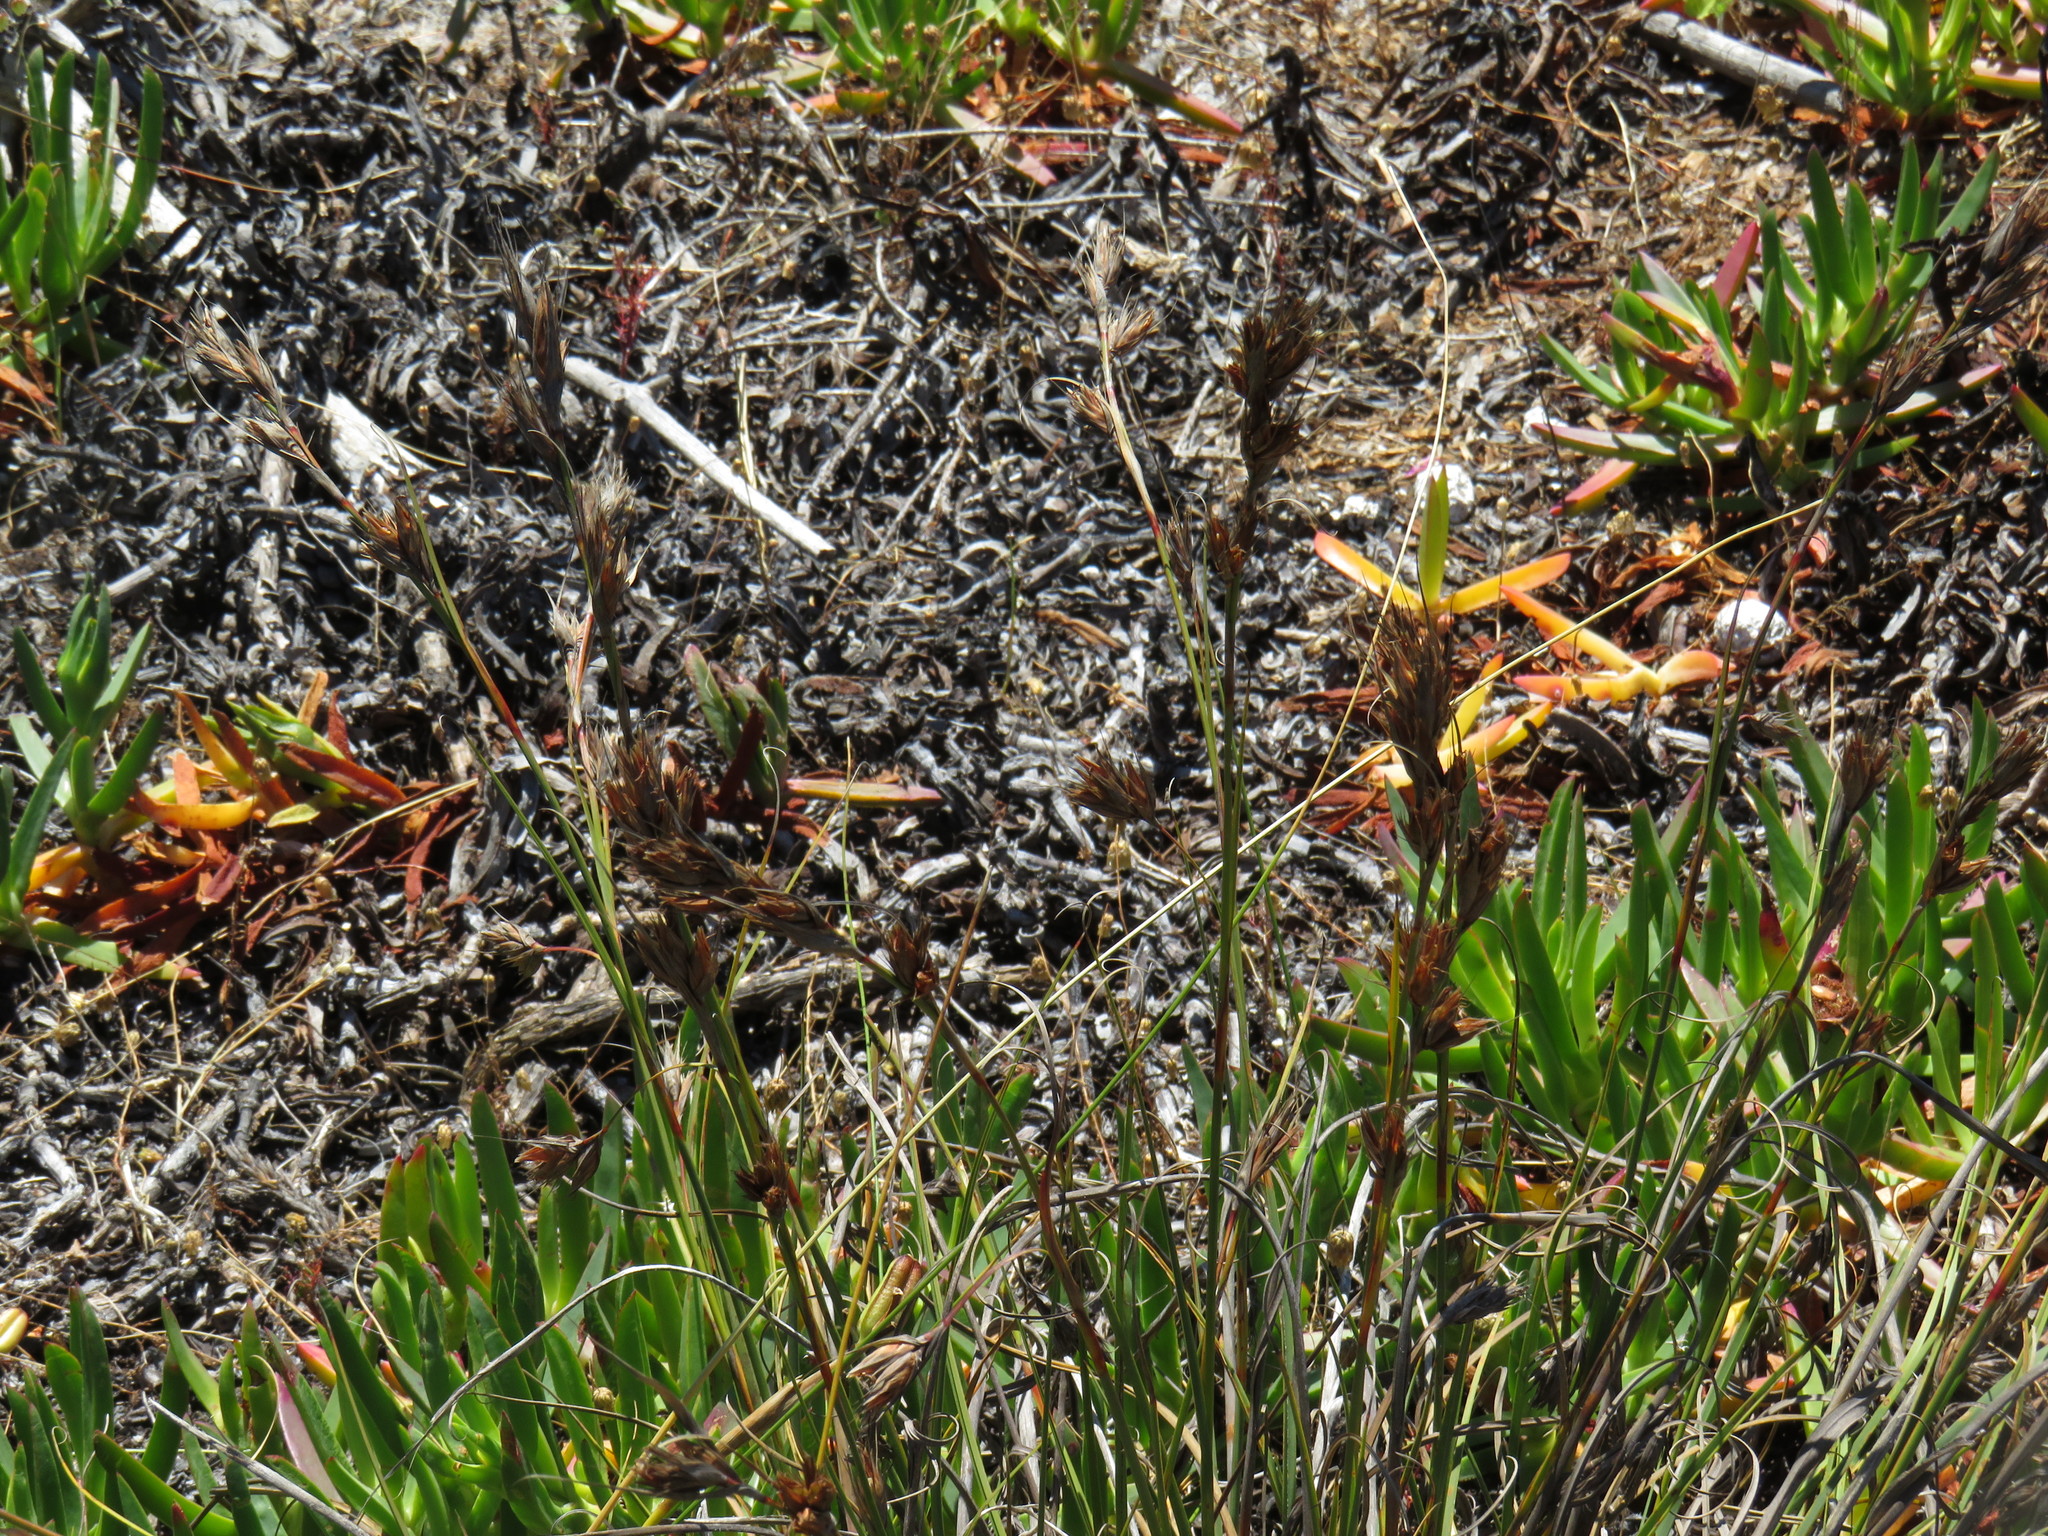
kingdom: Plantae
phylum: Tracheophyta
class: Liliopsida
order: Poales
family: Cyperaceae
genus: Tetraria
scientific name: Tetraria eximia
